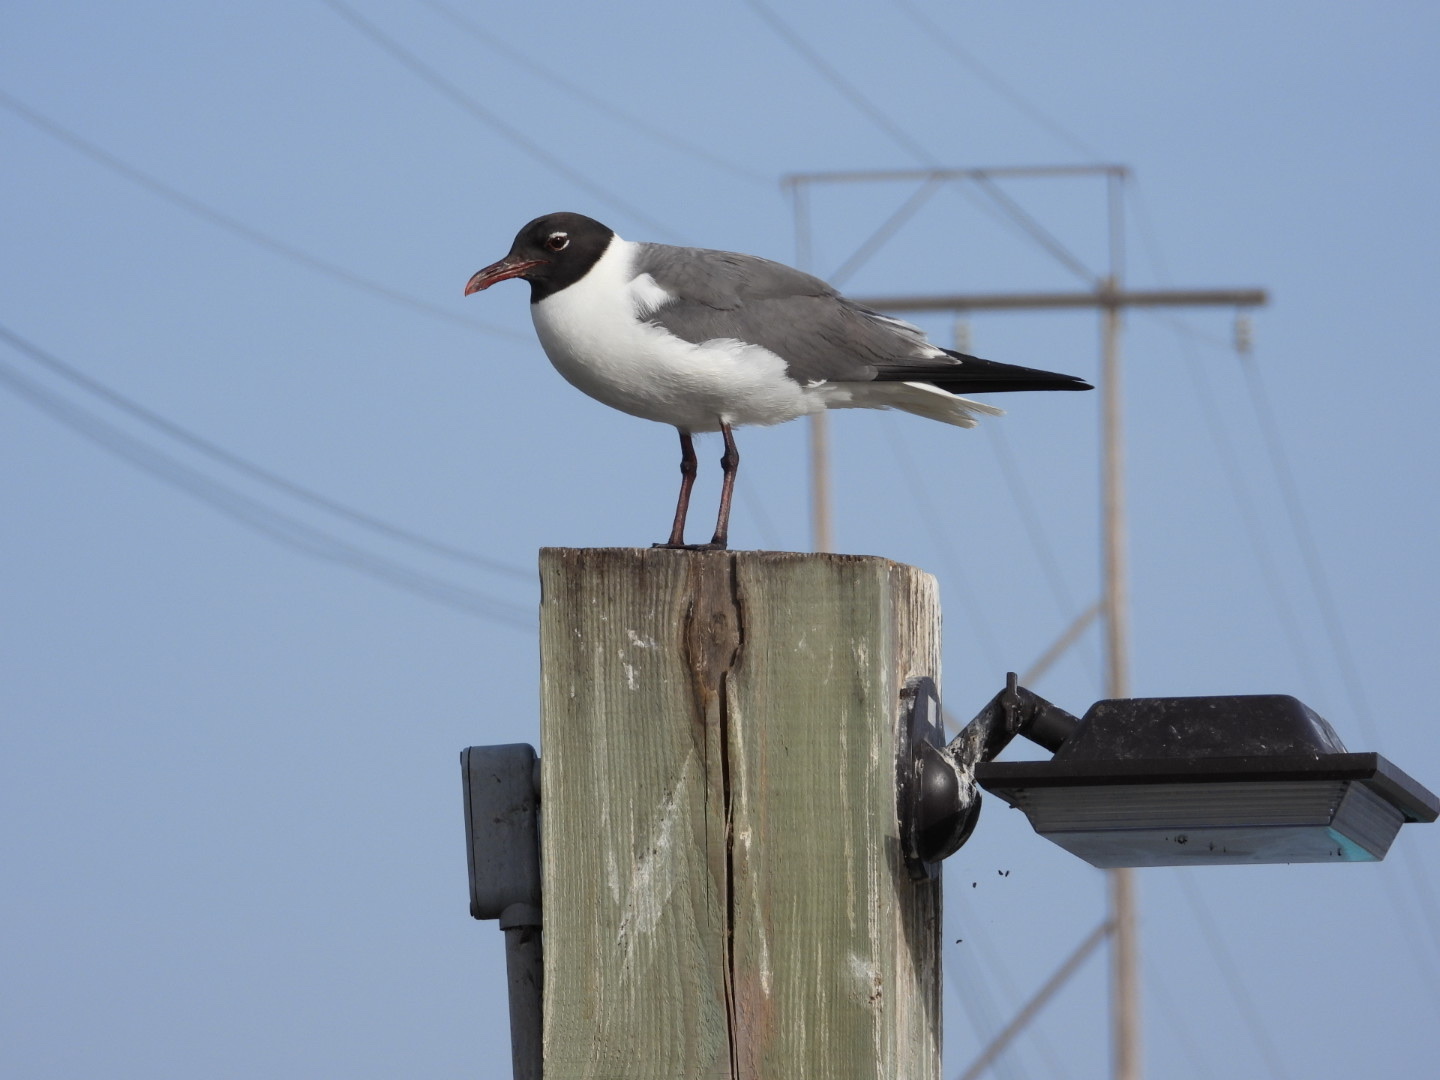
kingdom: Animalia
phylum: Chordata
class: Aves
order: Charadriiformes
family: Laridae
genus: Leucophaeus
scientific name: Leucophaeus atricilla
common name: Laughing gull
